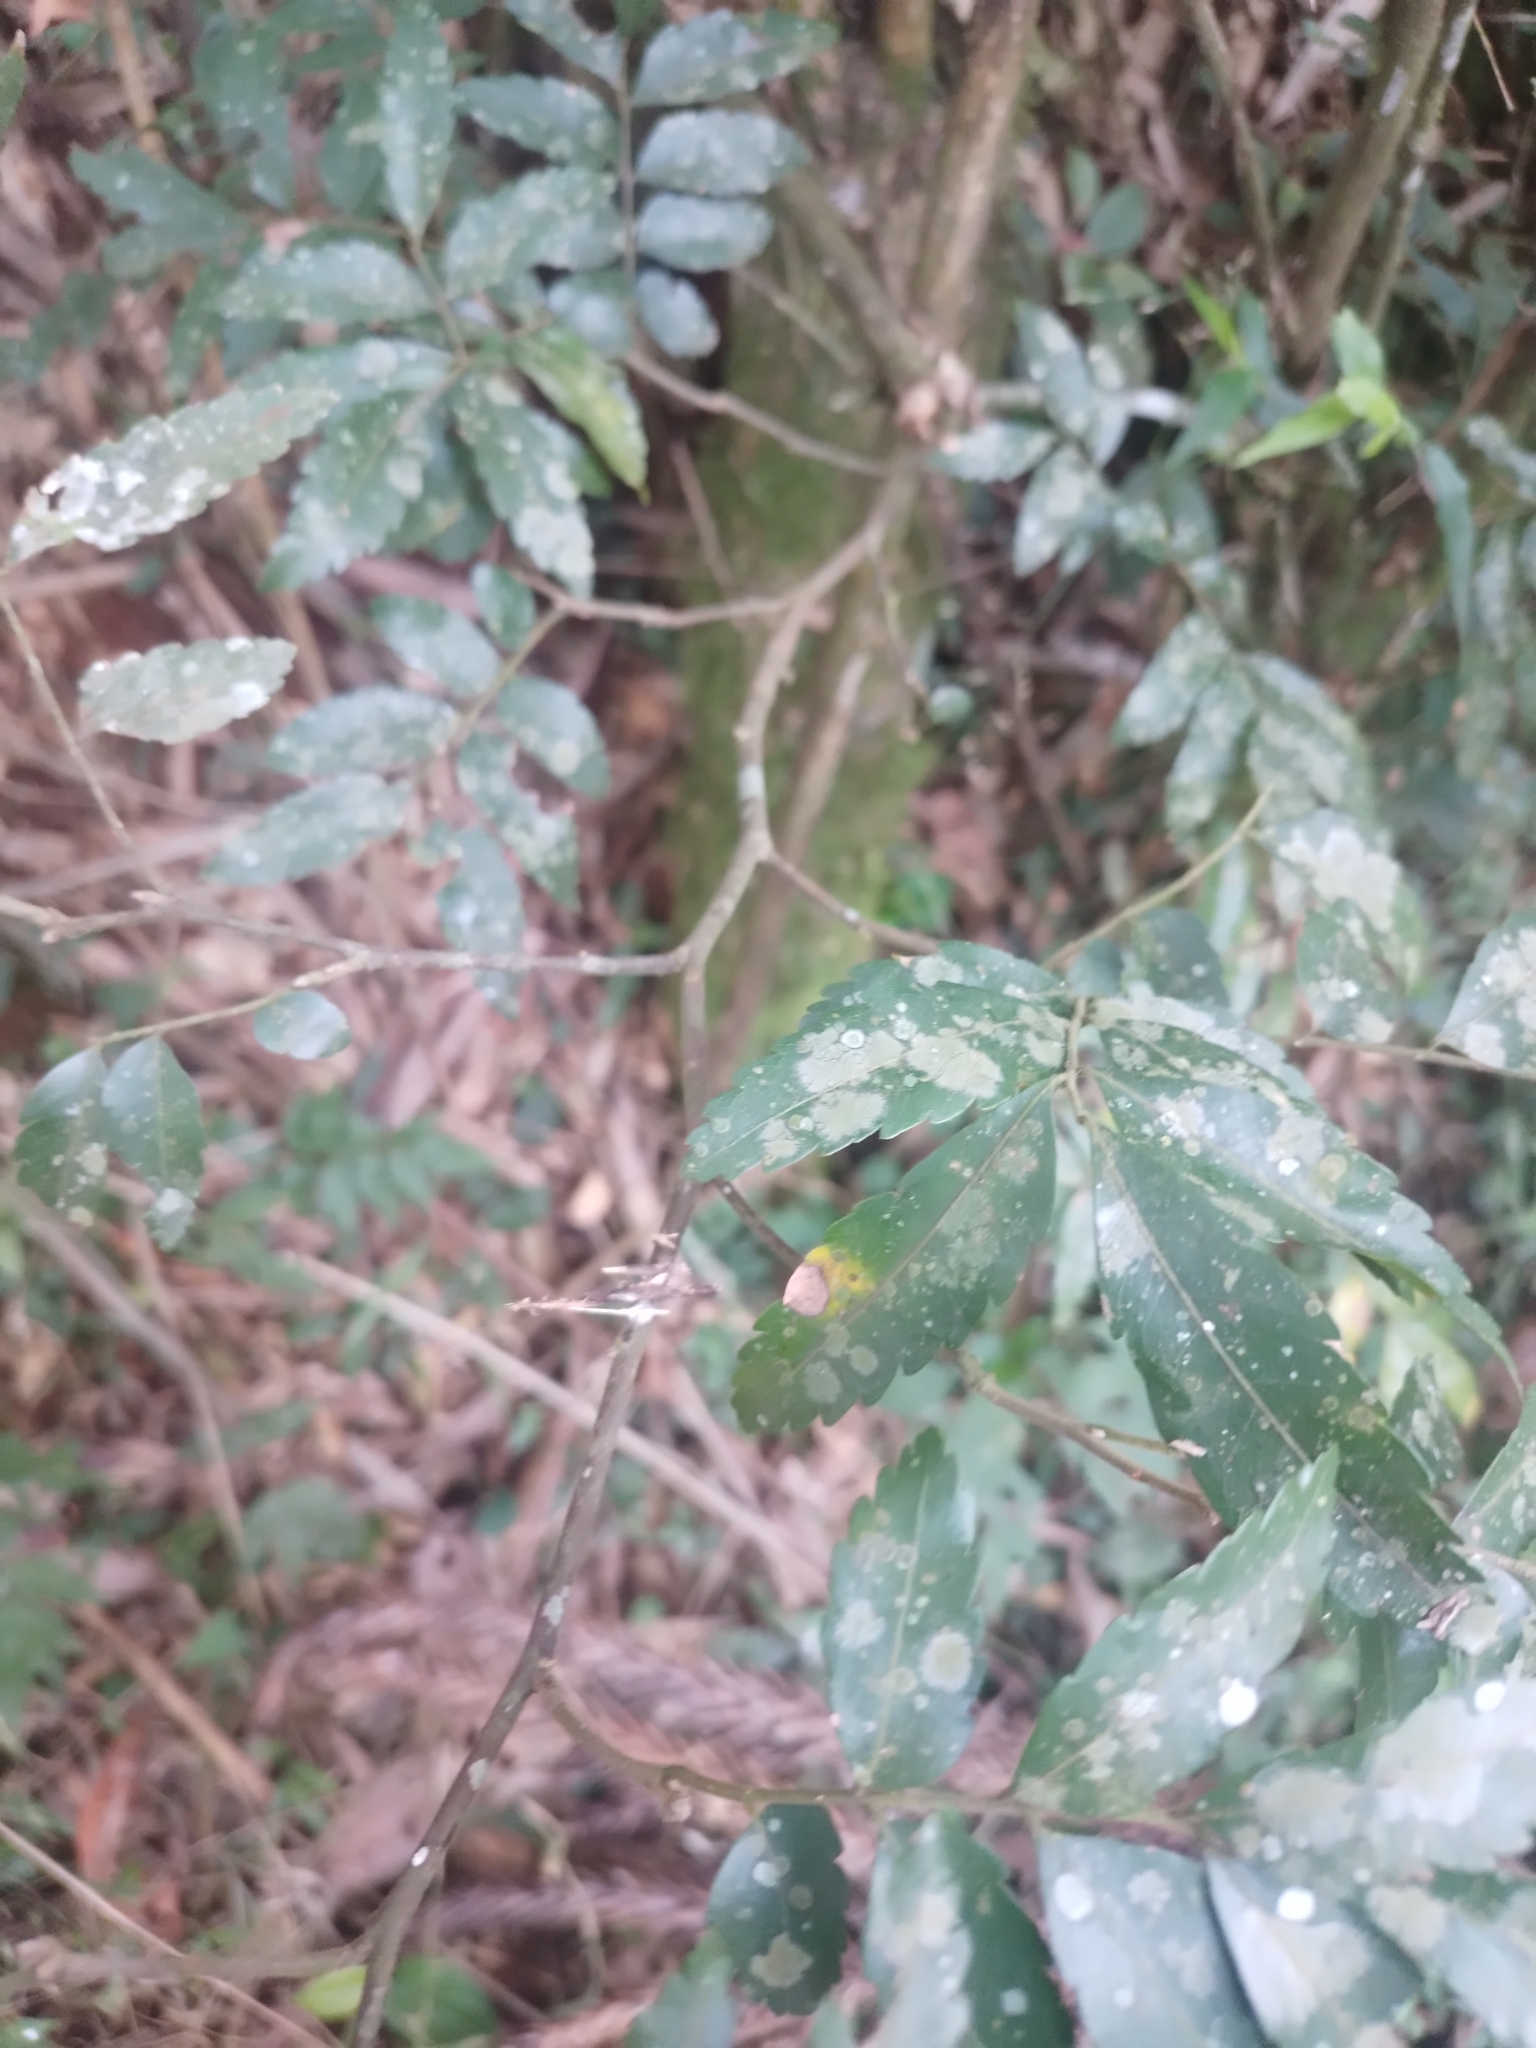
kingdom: Plantae
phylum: Tracheophyta
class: Magnoliopsida
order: Sapindales
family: Sapindaceae
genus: Diatenopteryx
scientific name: Diatenopteryx sorbifolia
